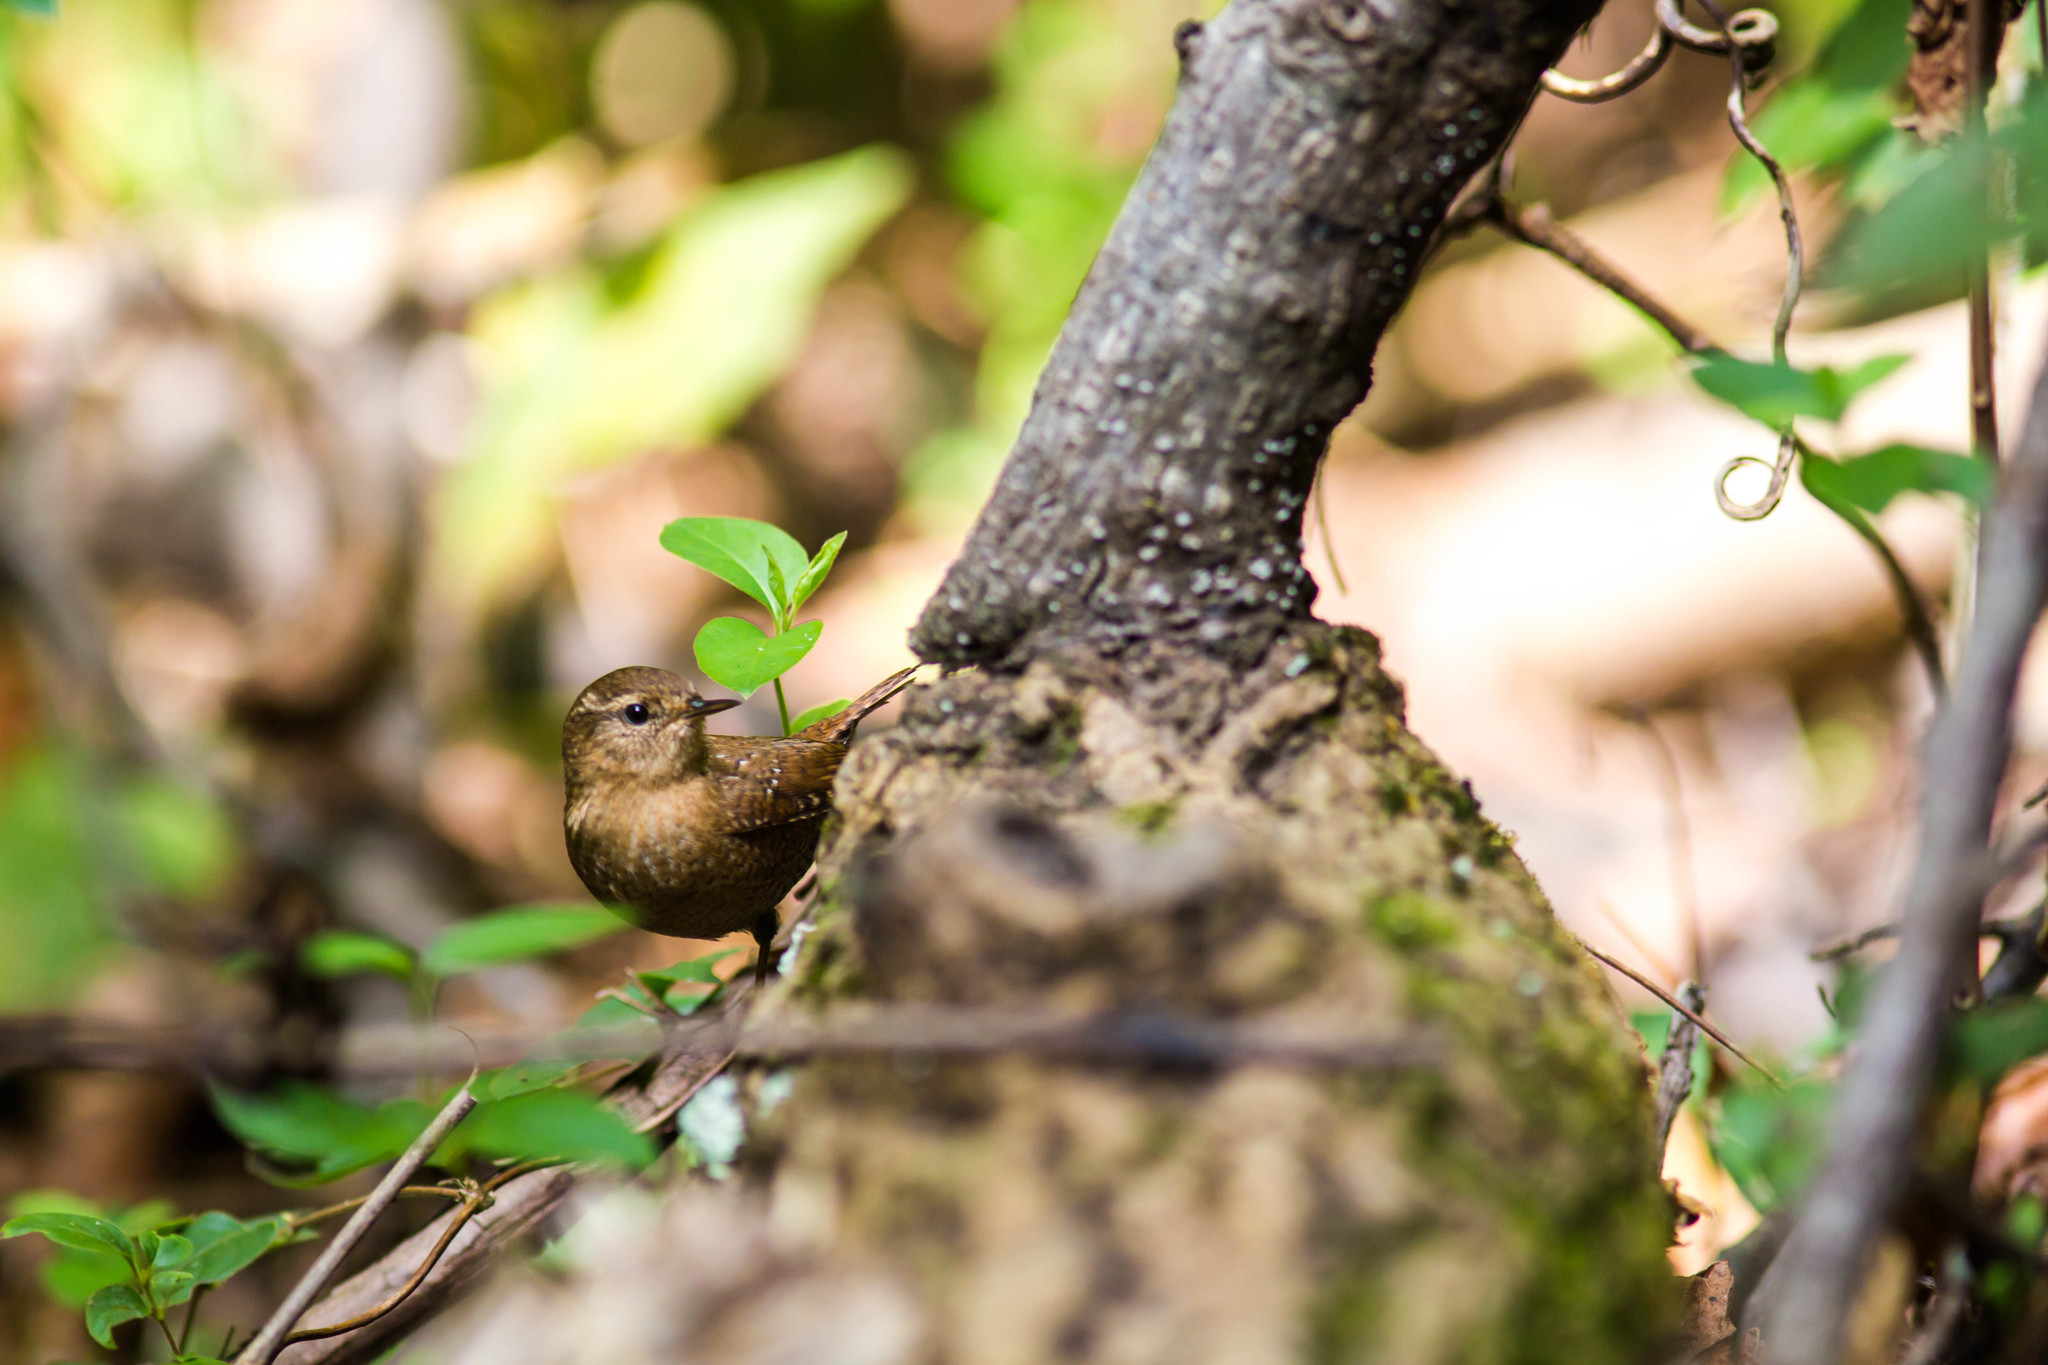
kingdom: Animalia
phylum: Chordata
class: Aves
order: Passeriformes
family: Troglodytidae
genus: Troglodytes
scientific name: Troglodytes hiemalis
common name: Winter wren
